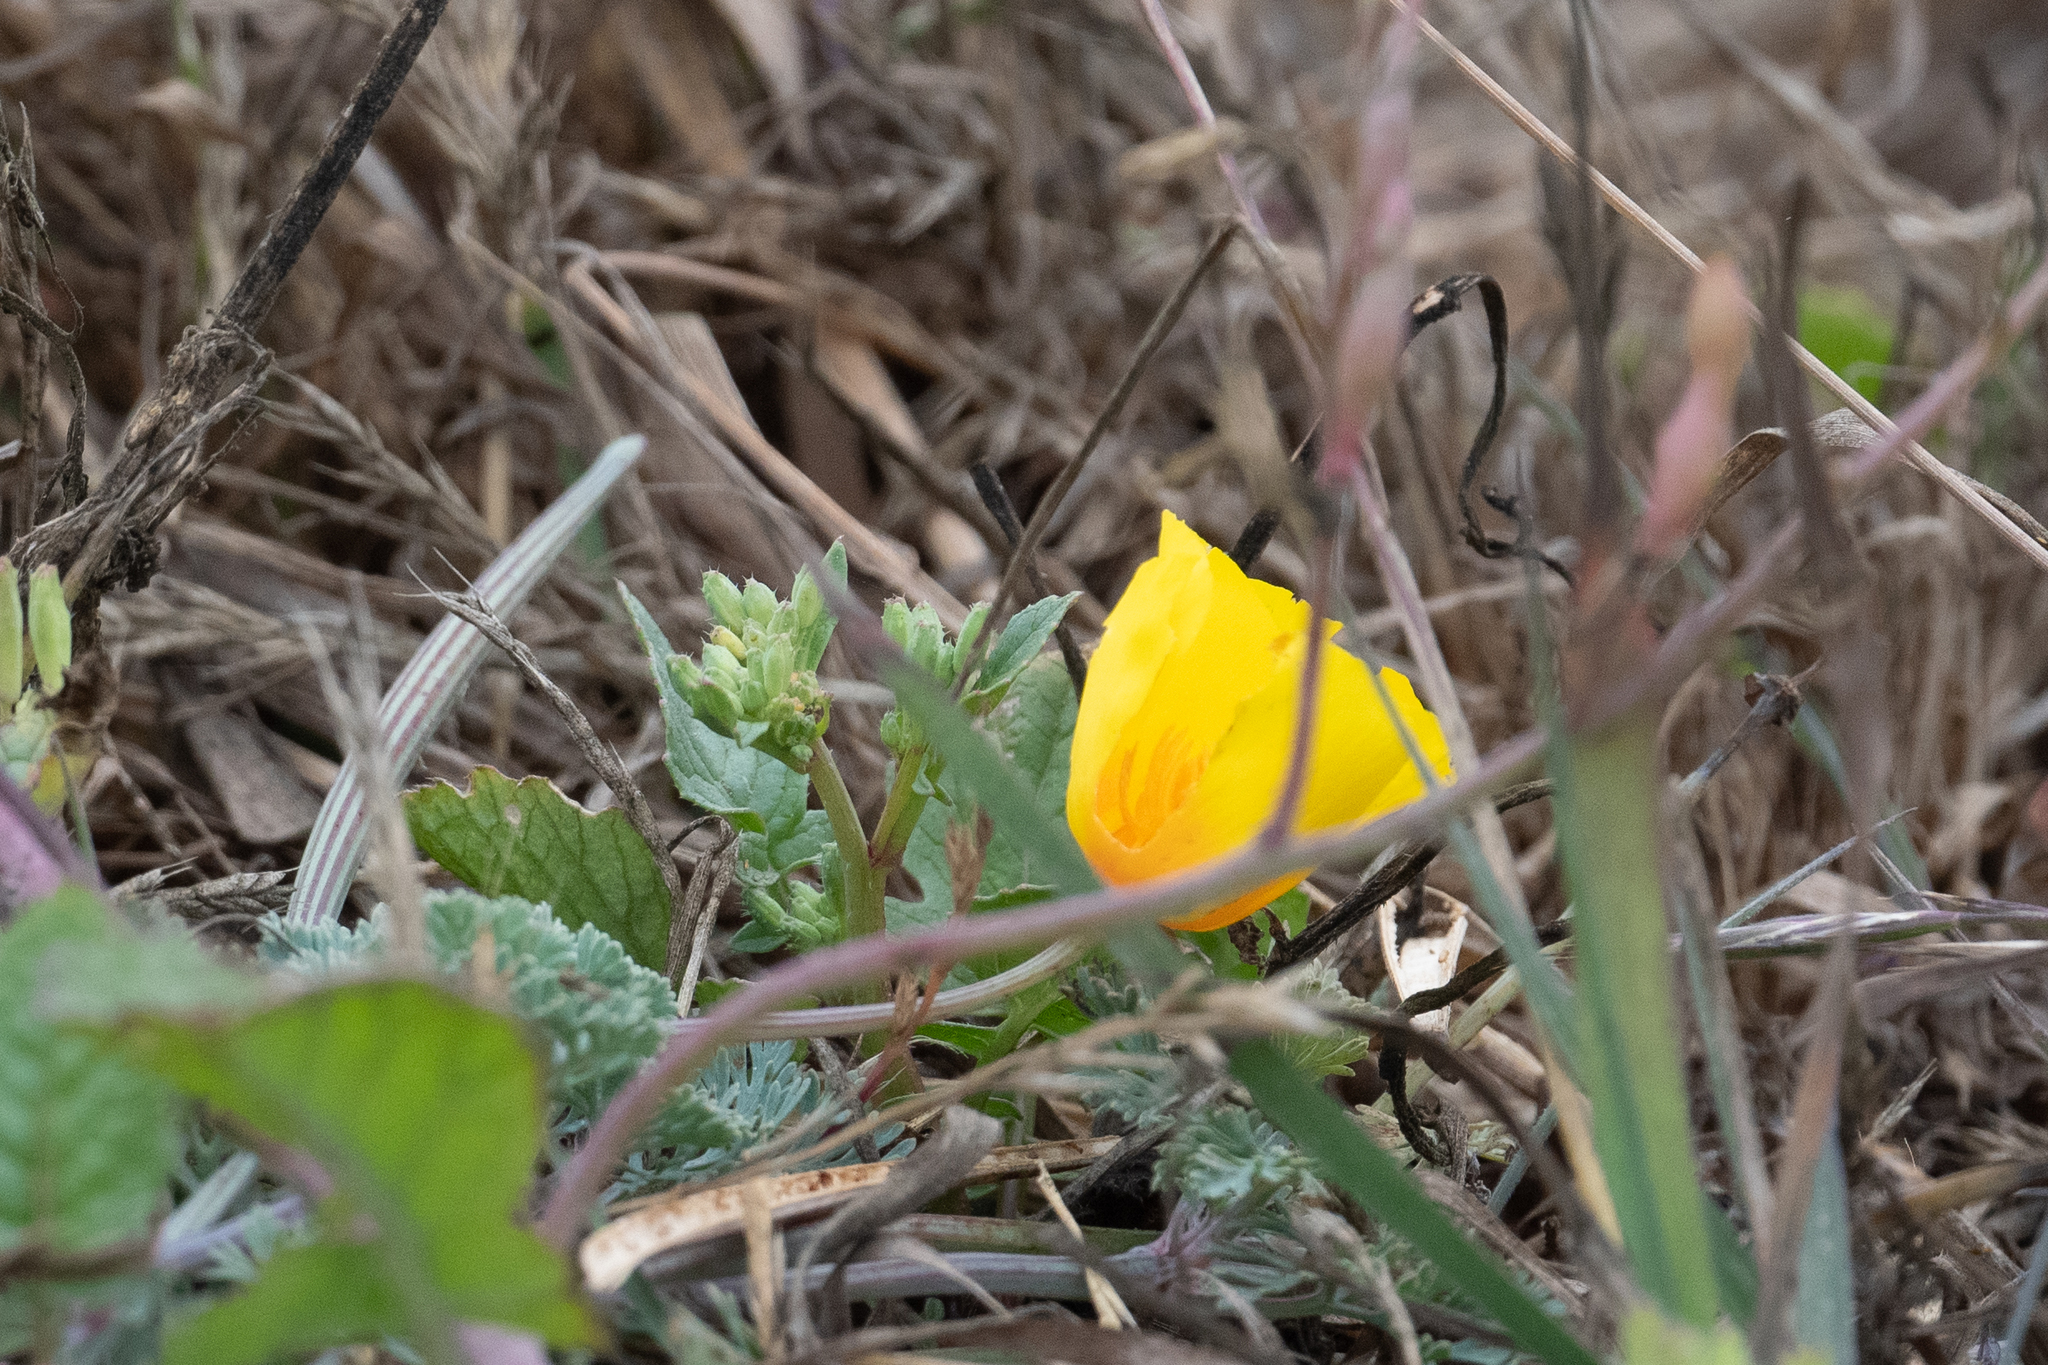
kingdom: Plantae
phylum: Tracheophyta
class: Magnoliopsida
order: Ranunculales
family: Papaveraceae
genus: Eschscholzia
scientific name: Eschscholzia californica
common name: California poppy
